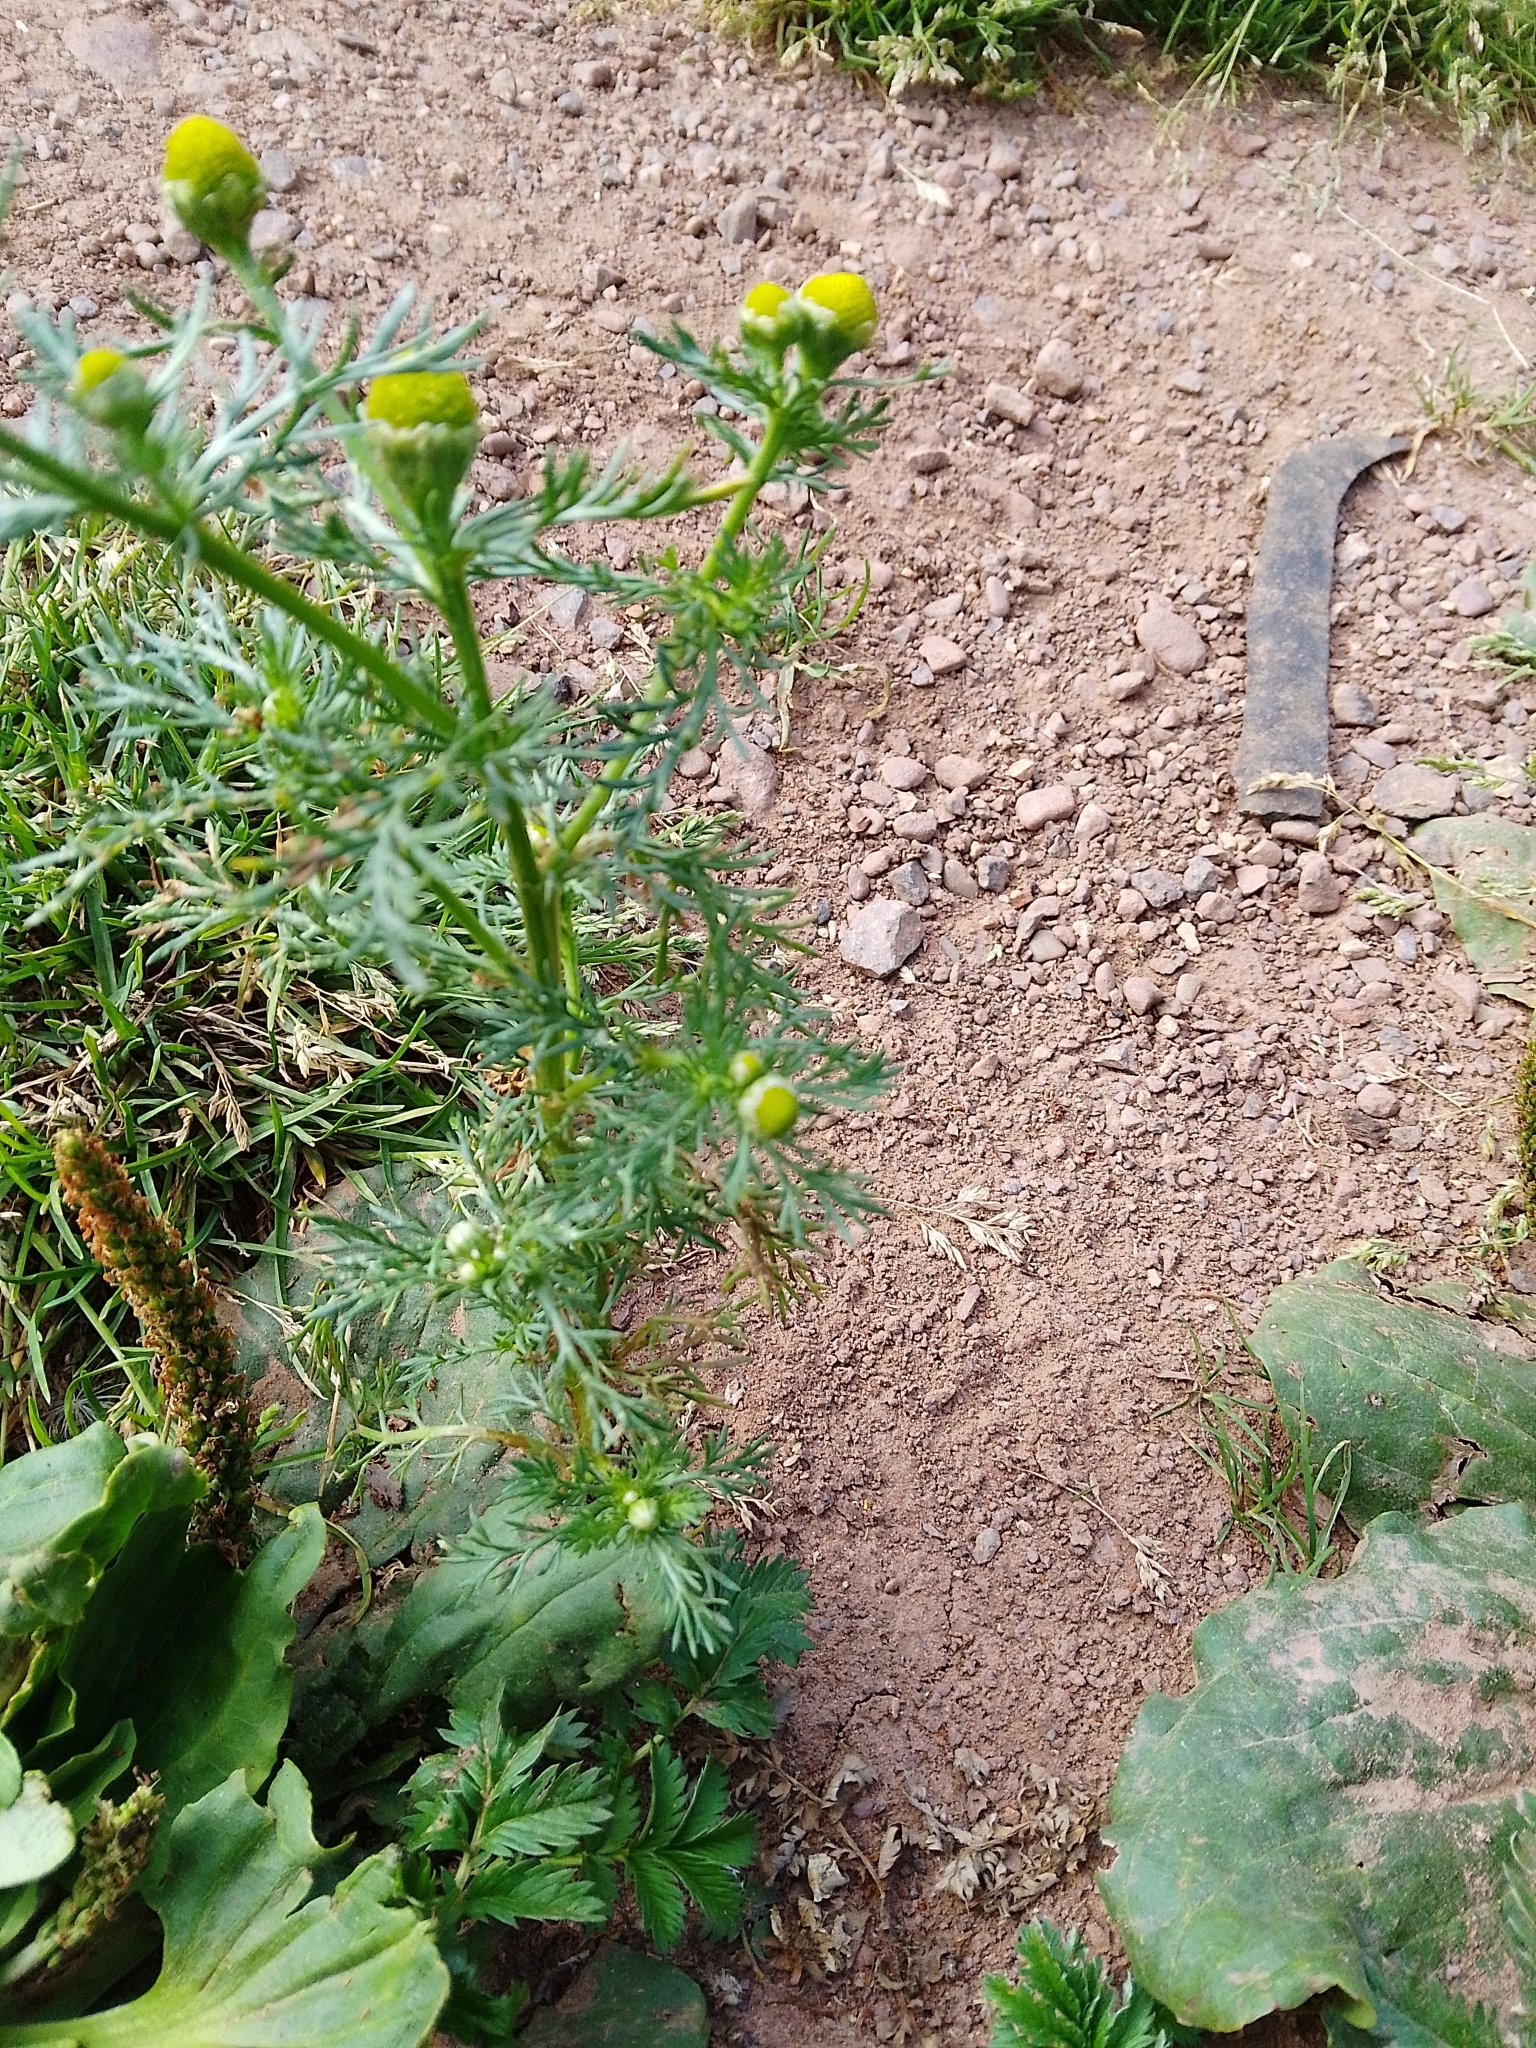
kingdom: Plantae
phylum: Tracheophyta
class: Magnoliopsida
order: Asterales
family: Asteraceae
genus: Matricaria
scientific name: Matricaria discoidea
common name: Disc mayweed
